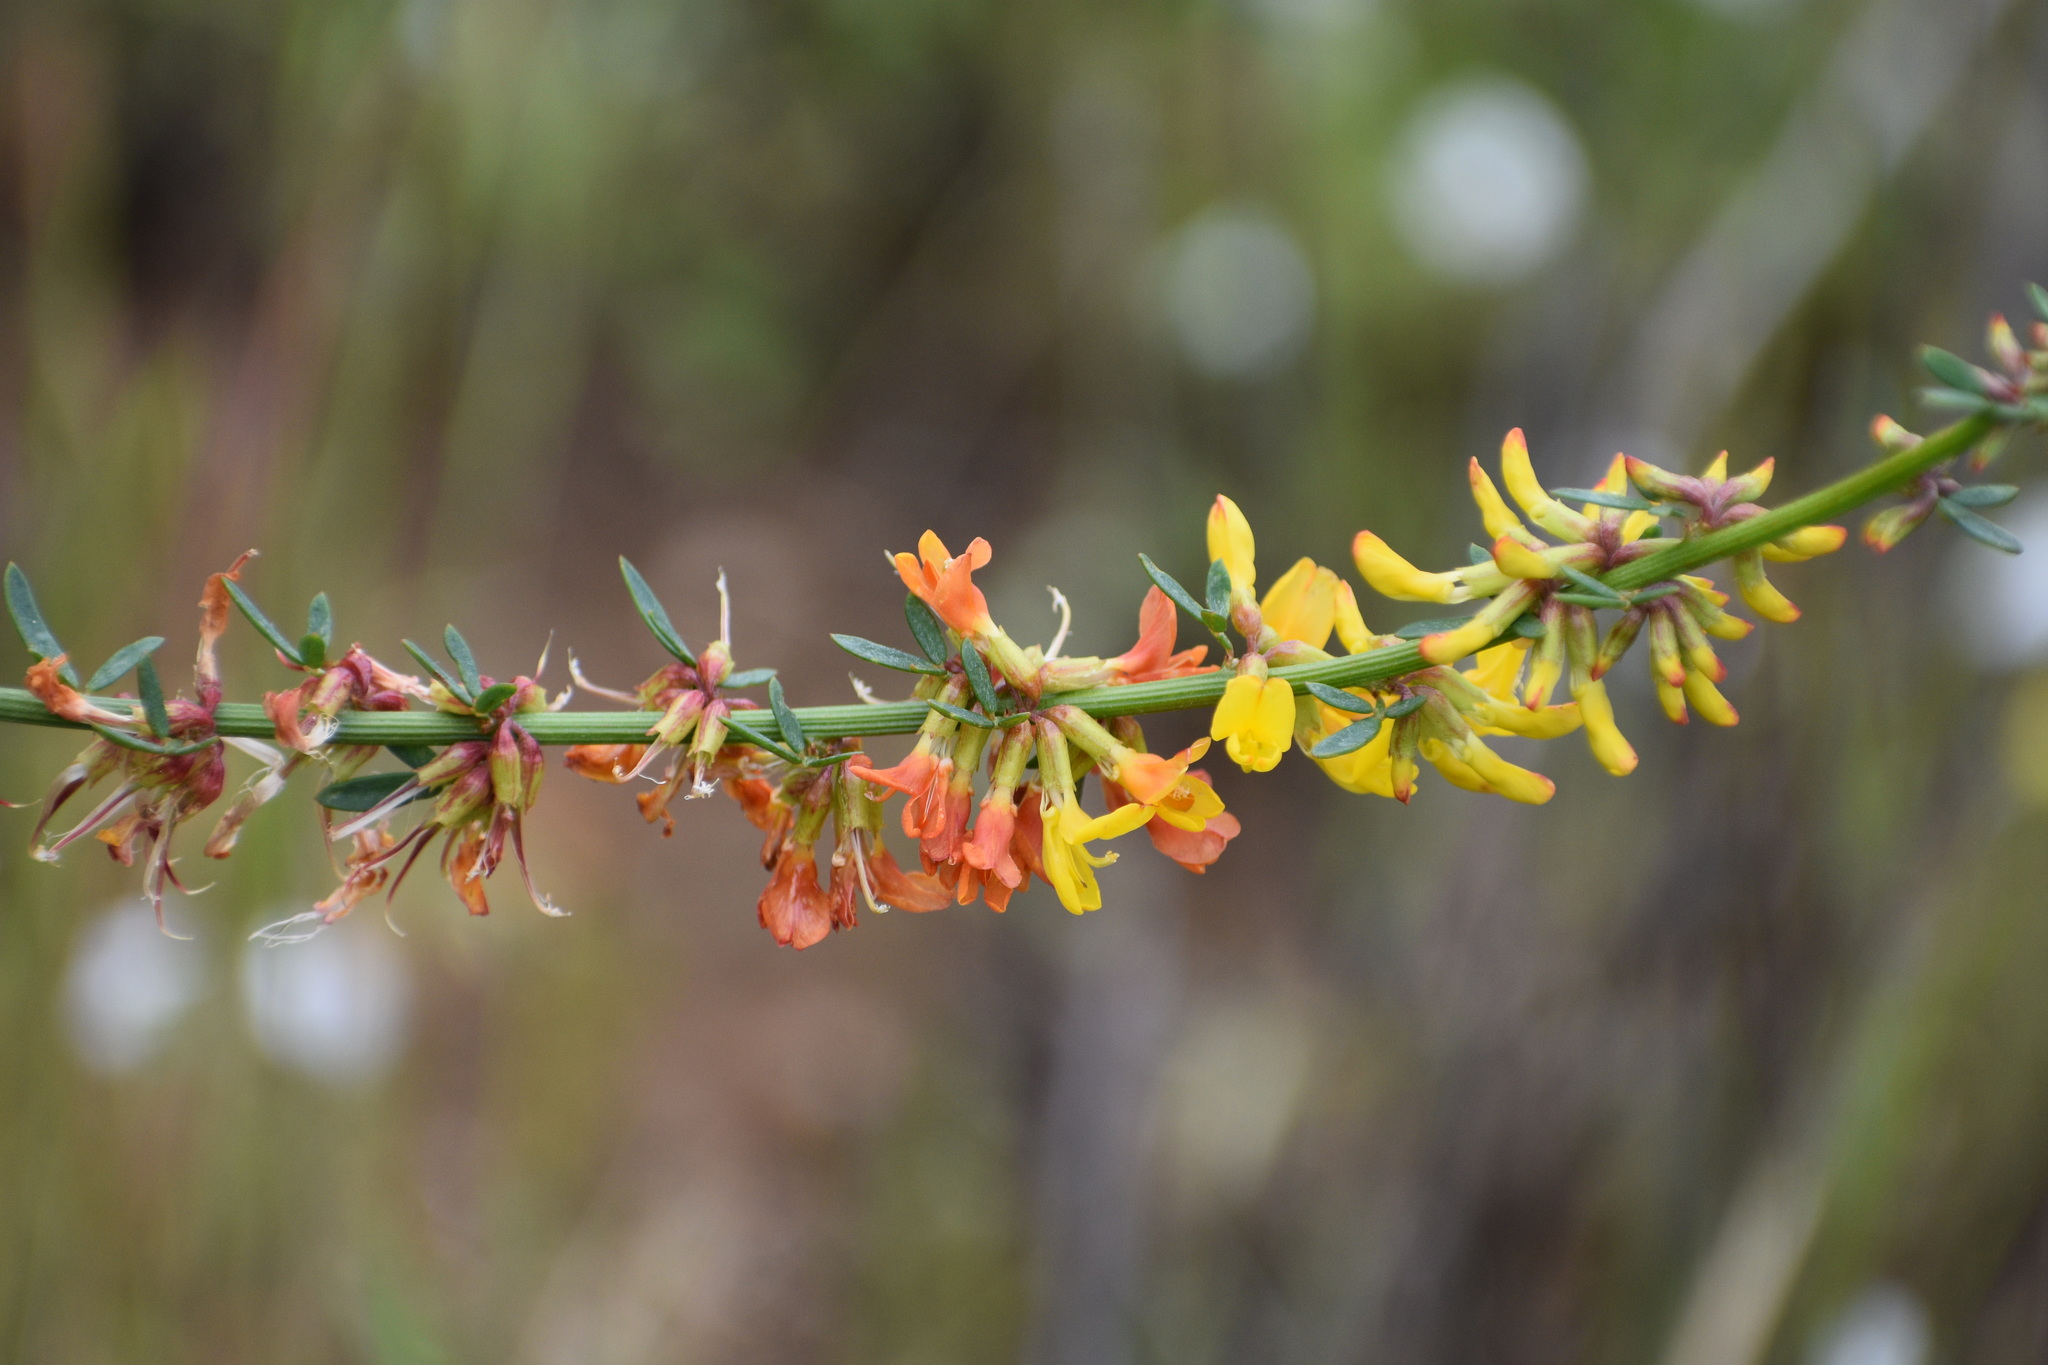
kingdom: Plantae
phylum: Tracheophyta
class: Magnoliopsida
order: Fabales
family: Fabaceae
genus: Acmispon
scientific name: Acmispon glaber
